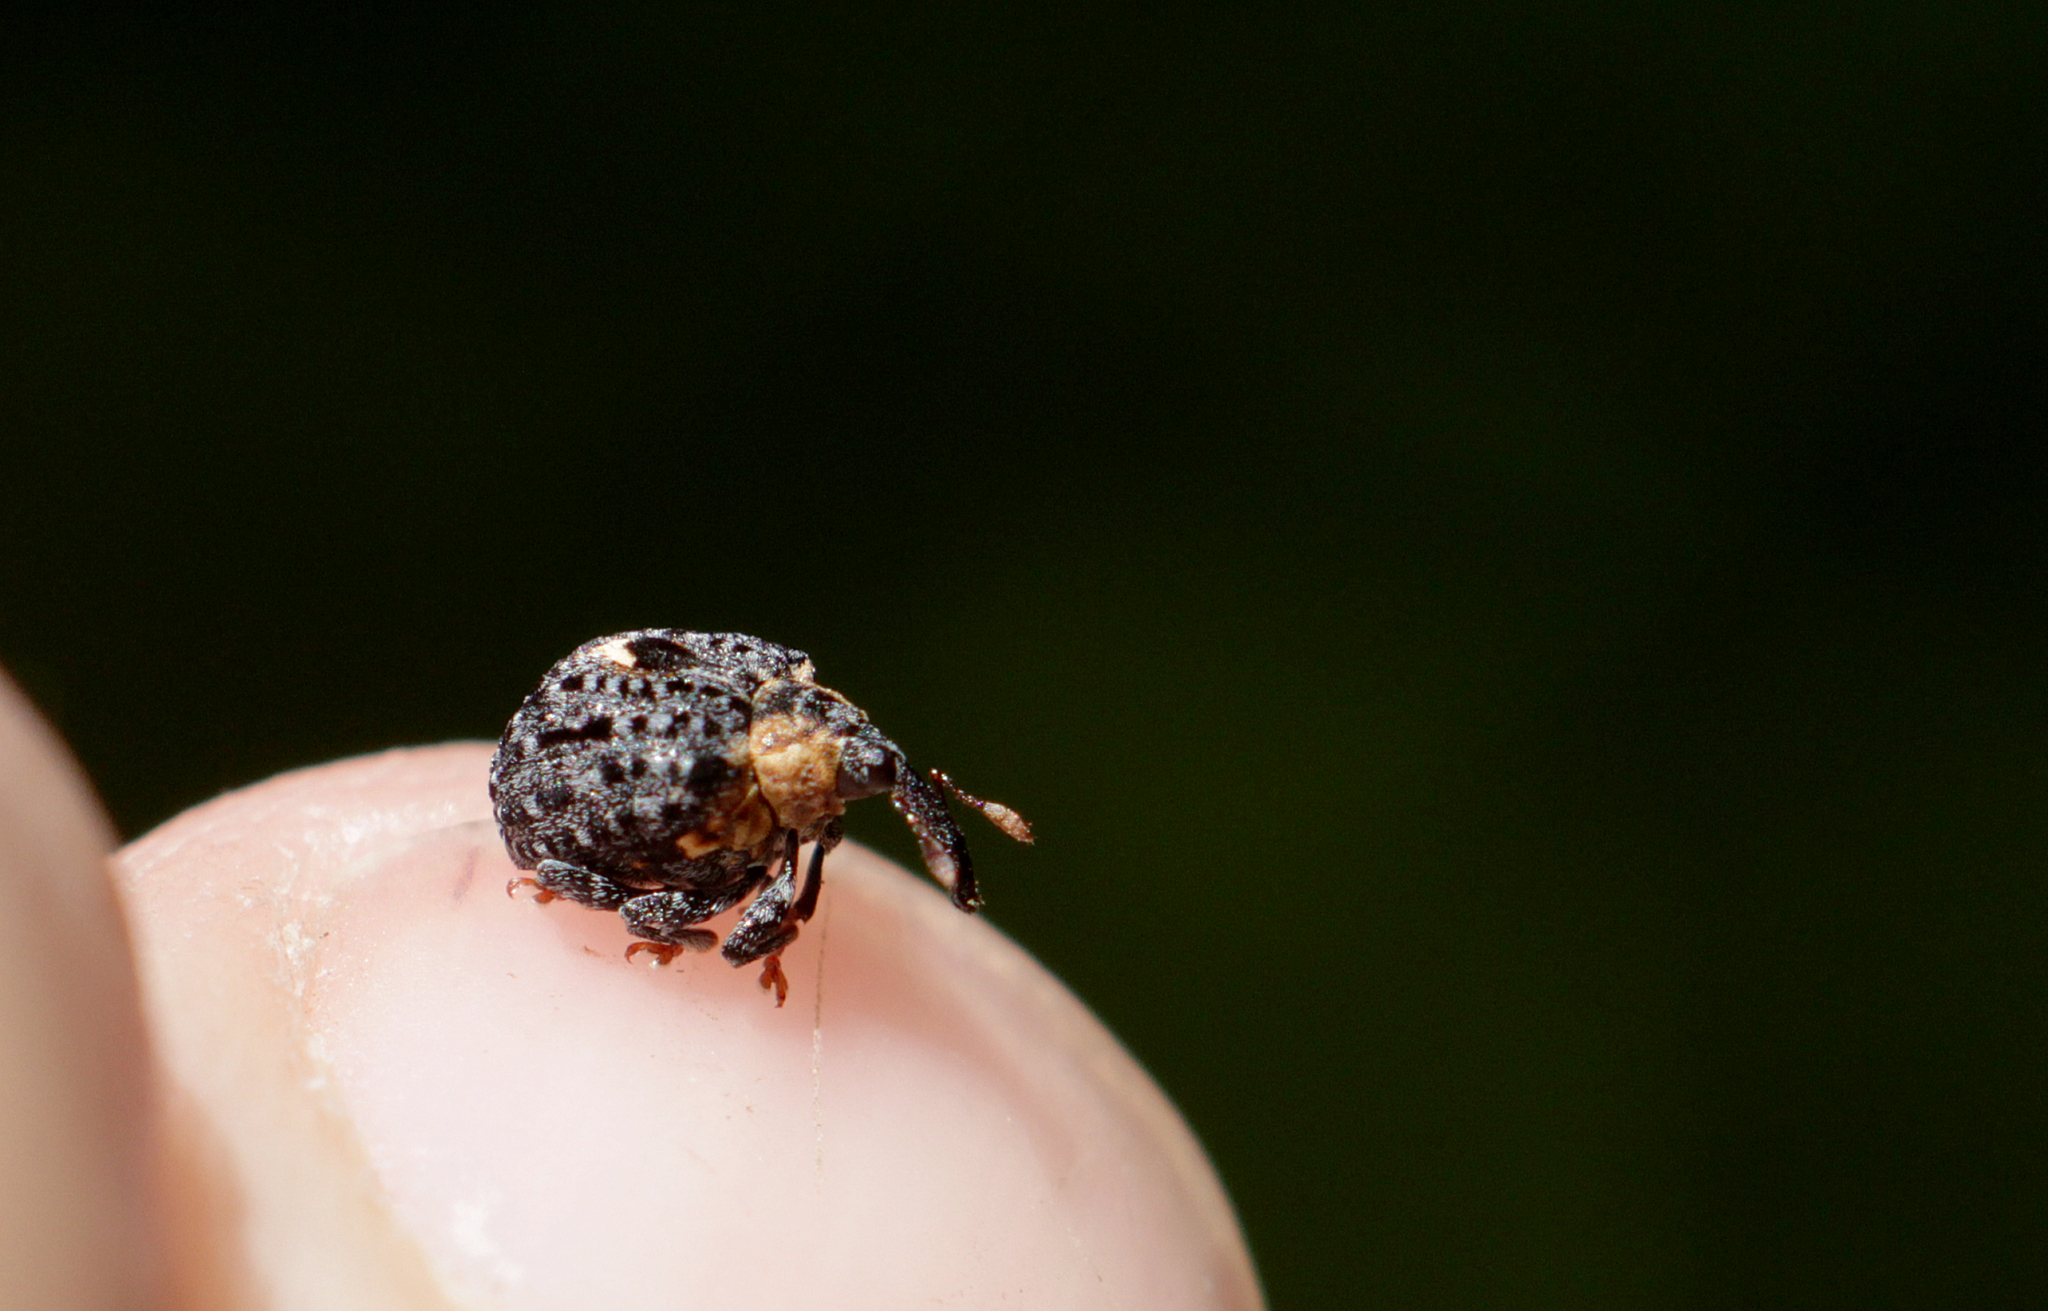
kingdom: Animalia
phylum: Arthropoda
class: Insecta
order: Coleoptera
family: Curculionidae
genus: Cionus
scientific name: Cionus tuberculosus
